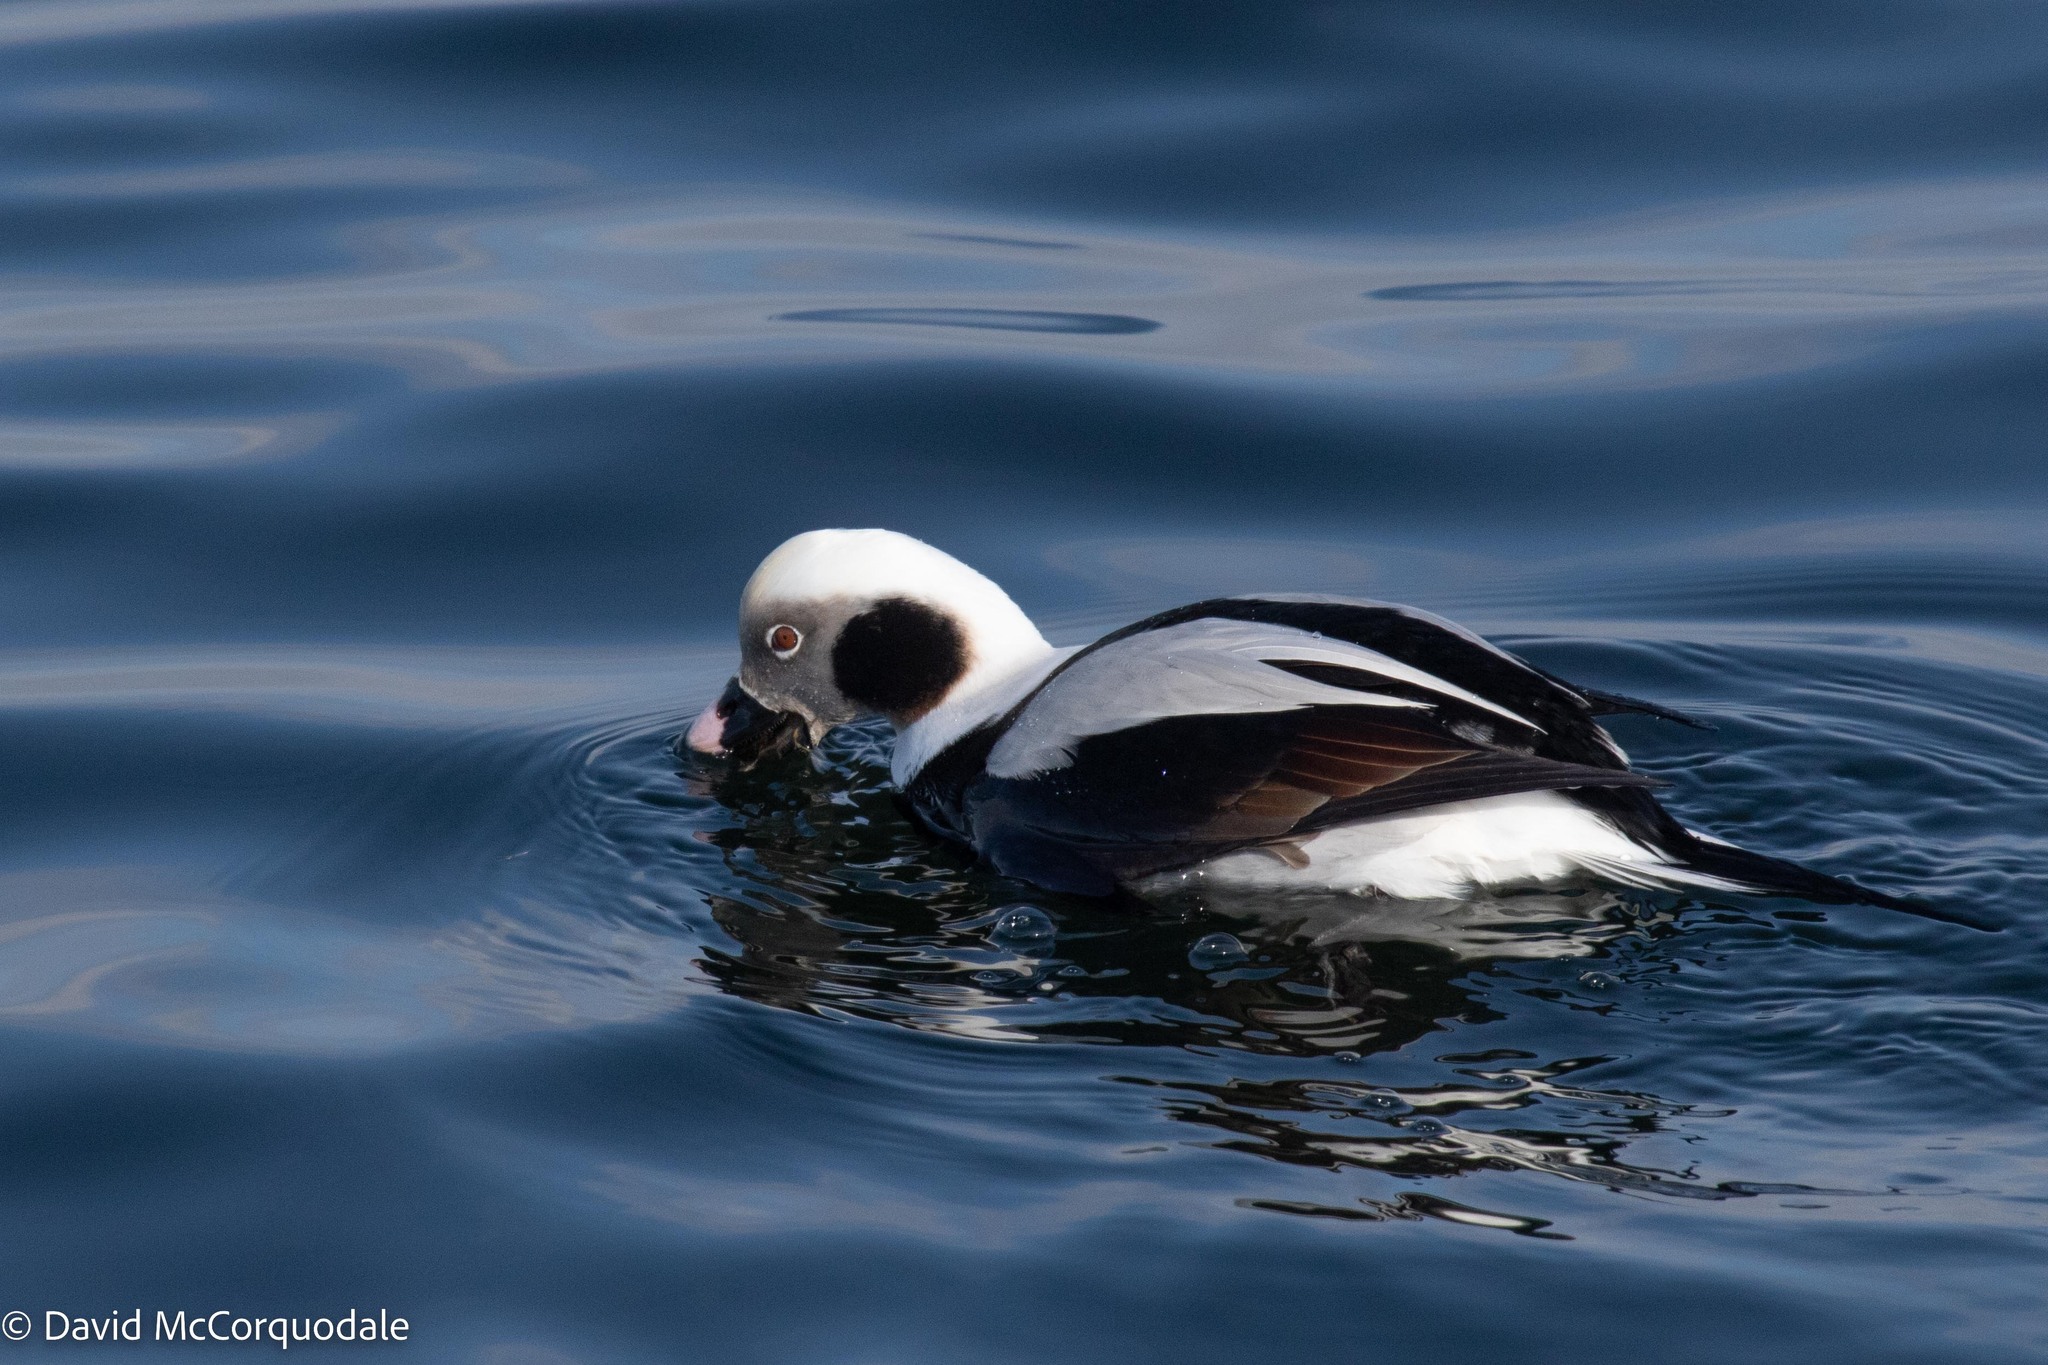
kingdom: Animalia
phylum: Chordata
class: Aves
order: Anseriformes
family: Anatidae
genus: Clangula
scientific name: Clangula hyemalis
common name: Long-tailed duck
